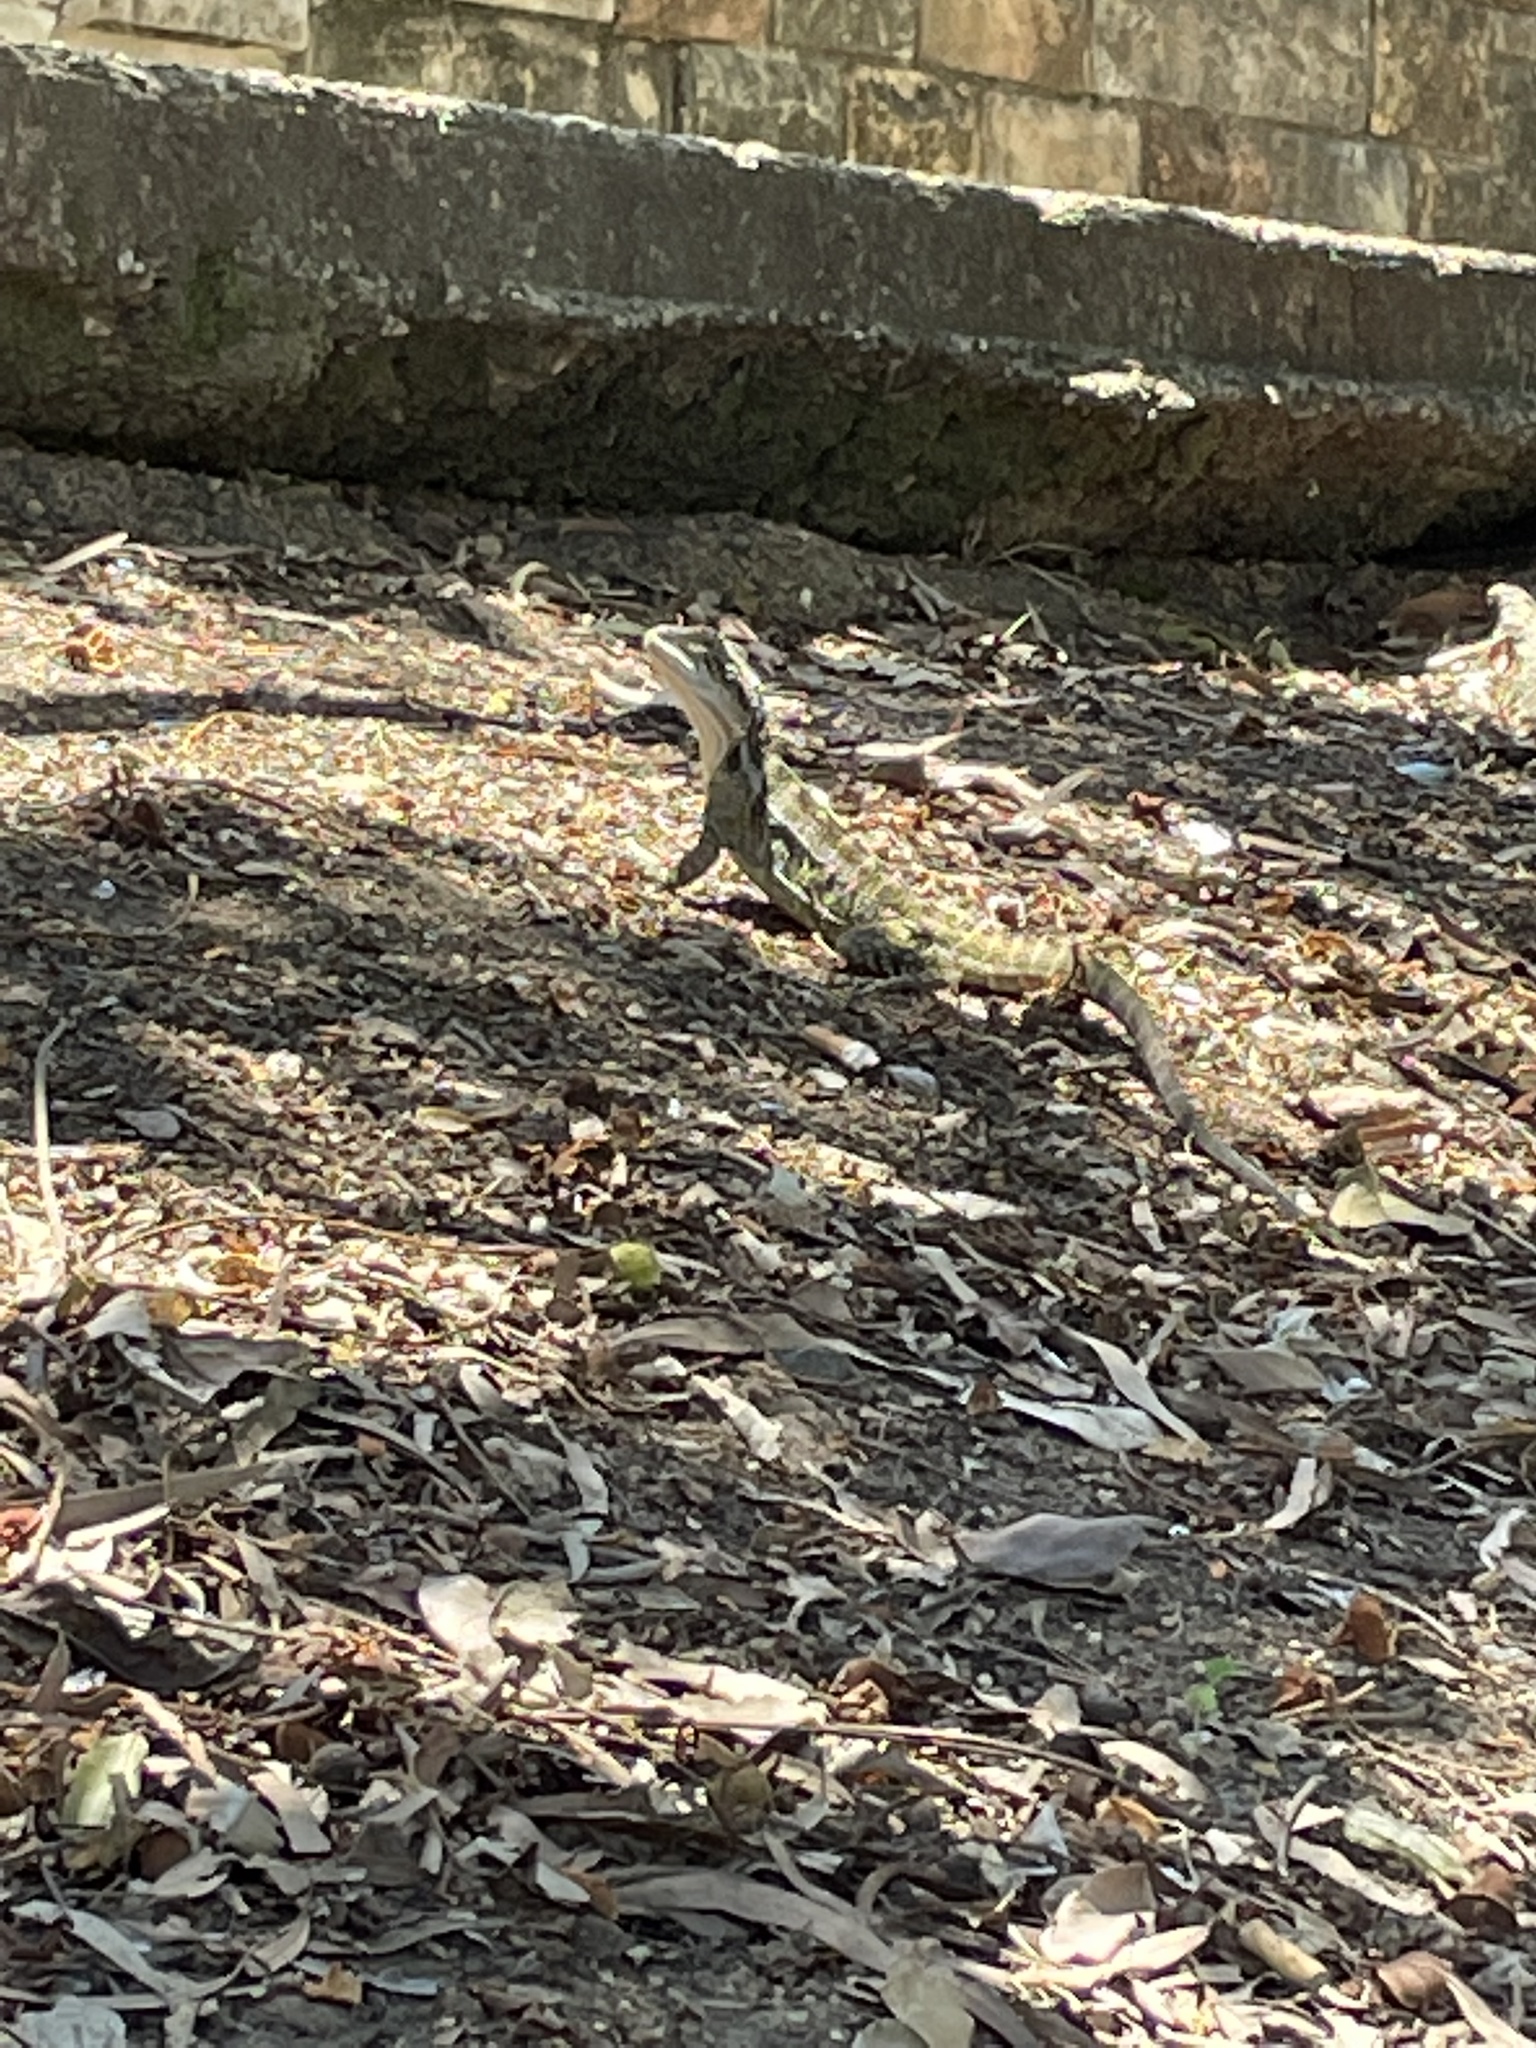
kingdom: Animalia
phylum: Chordata
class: Squamata
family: Agamidae
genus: Intellagama
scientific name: Intellagama lesueurii
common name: Eastern water dragon
